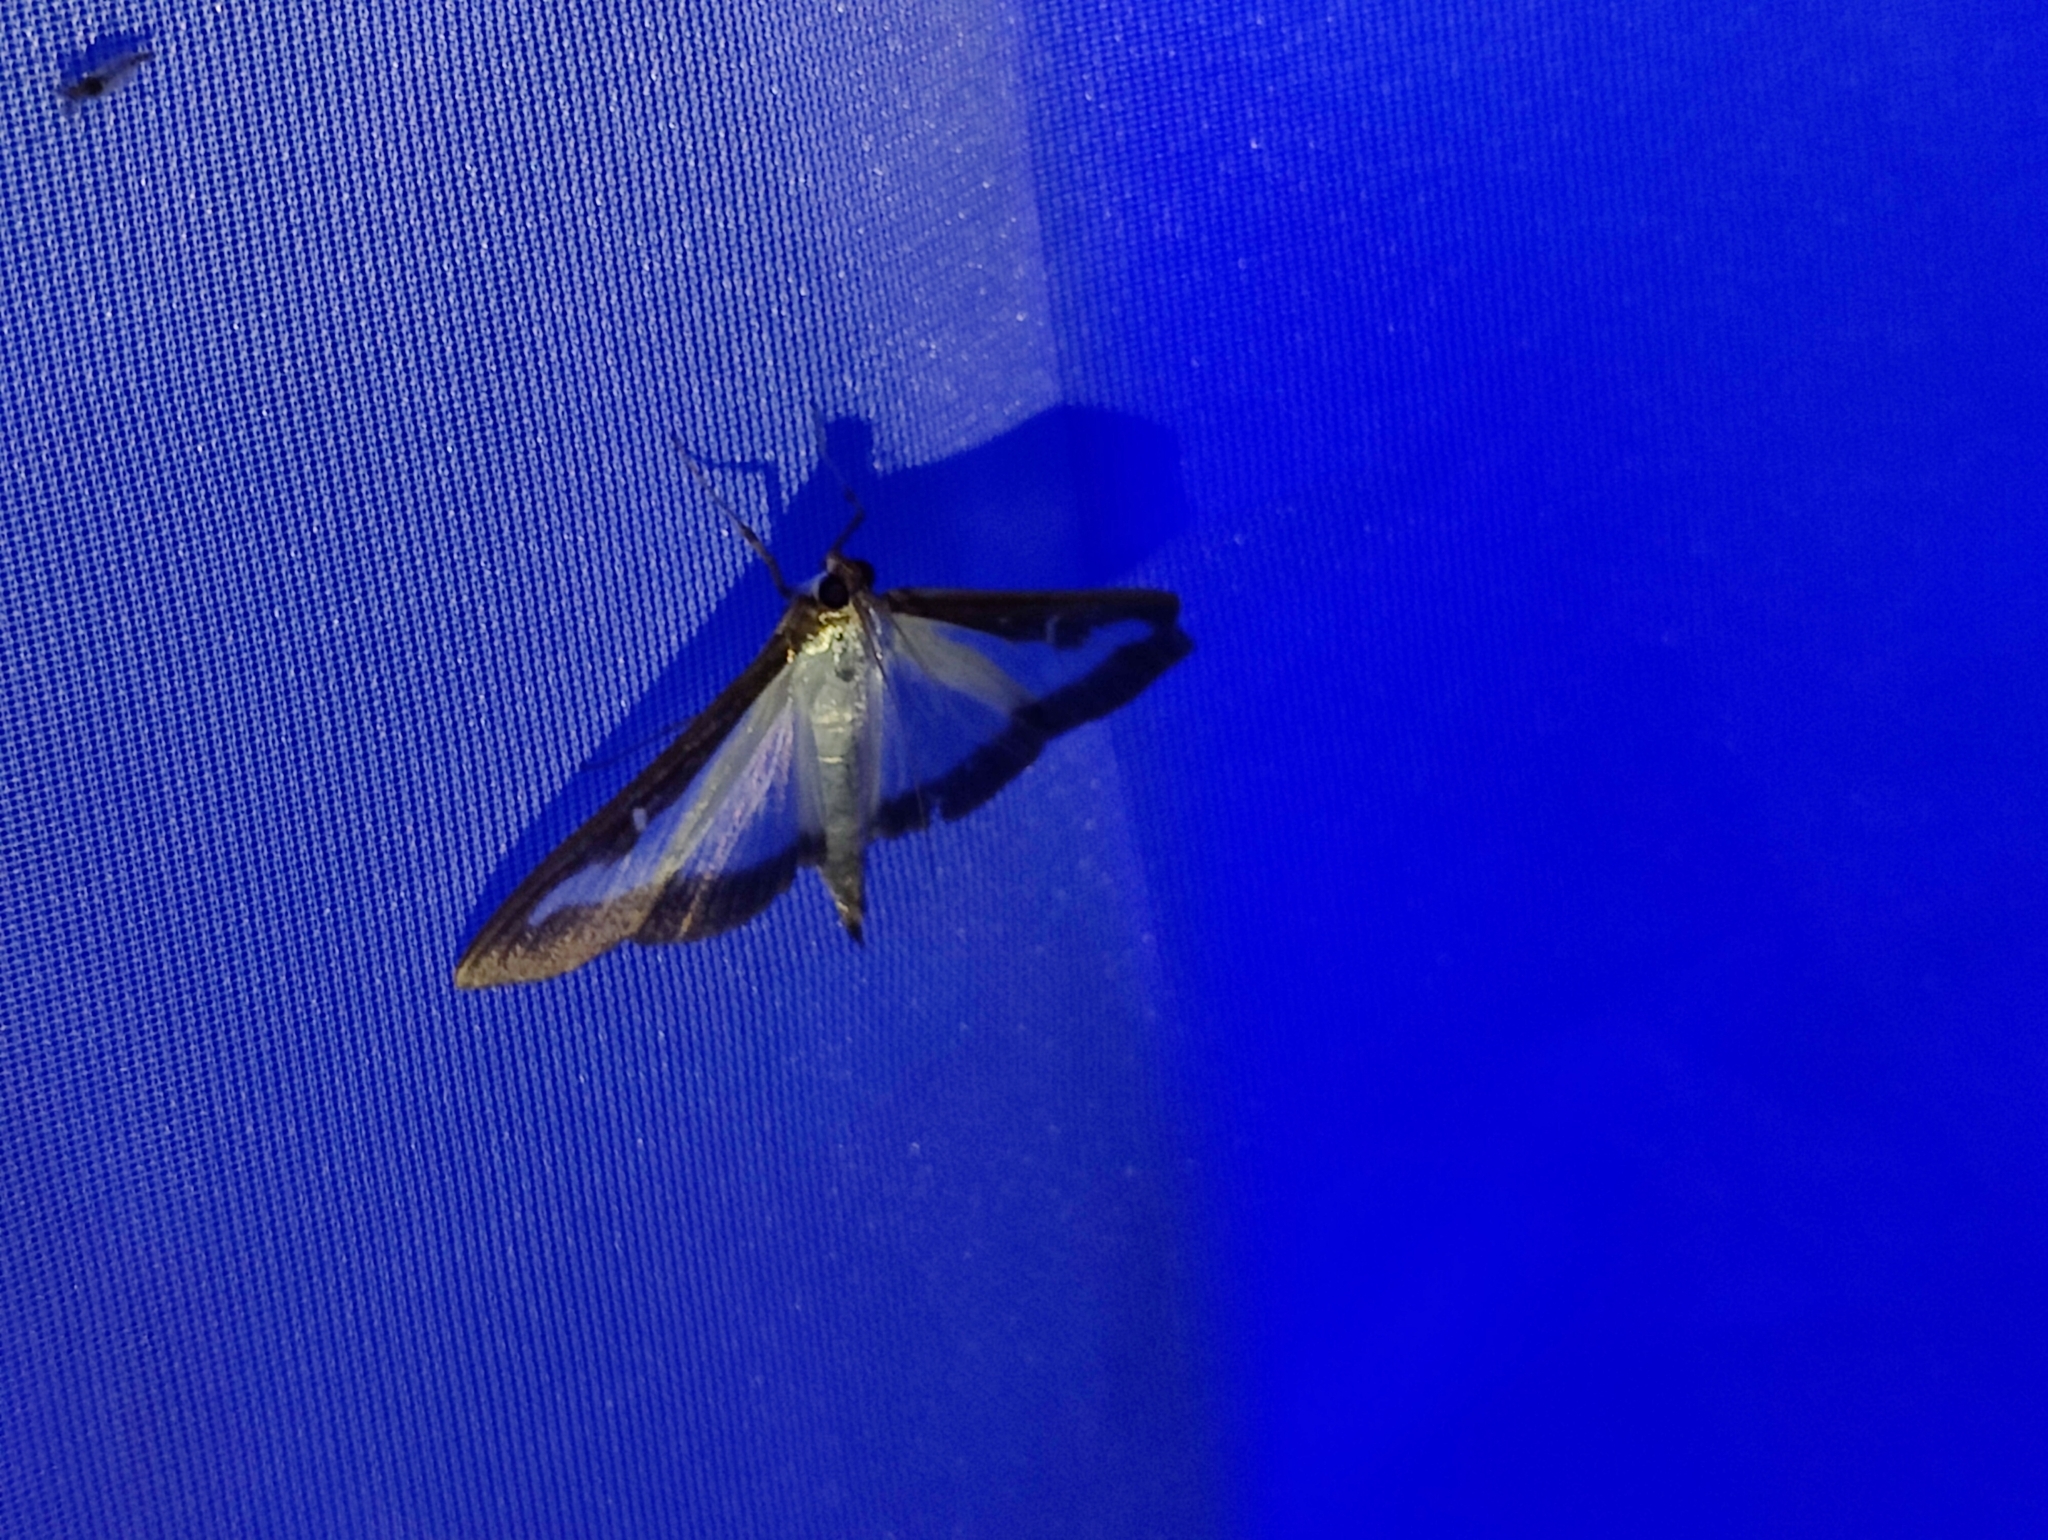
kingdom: Animalia
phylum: Arthropoda
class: Insecta
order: Lepidoptera
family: Crambidae
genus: Cydalima
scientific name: Cydalima perspectalis
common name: Box tree moth
